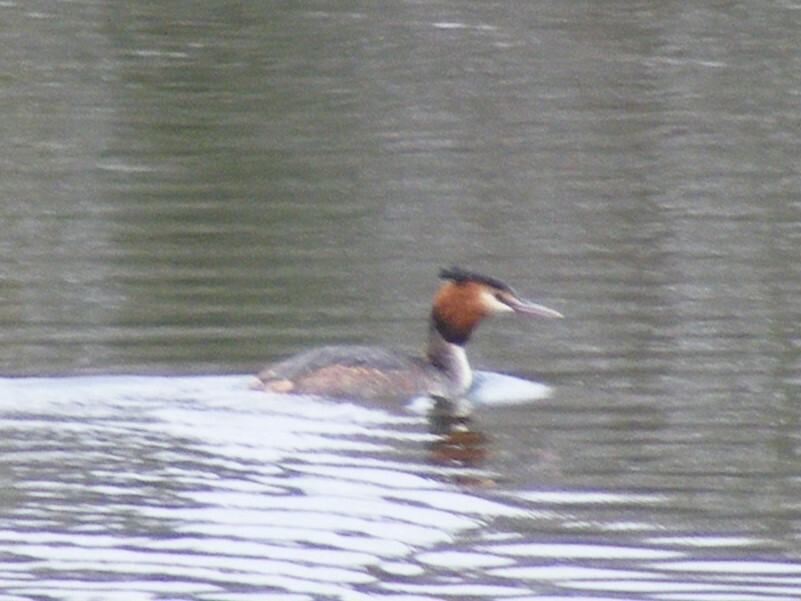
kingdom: Animalia
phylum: Chordata
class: Aves
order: Podicipediformes
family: Podicipedidae
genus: Podiceps
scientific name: Podiceps cristatus
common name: Great crested grebe
